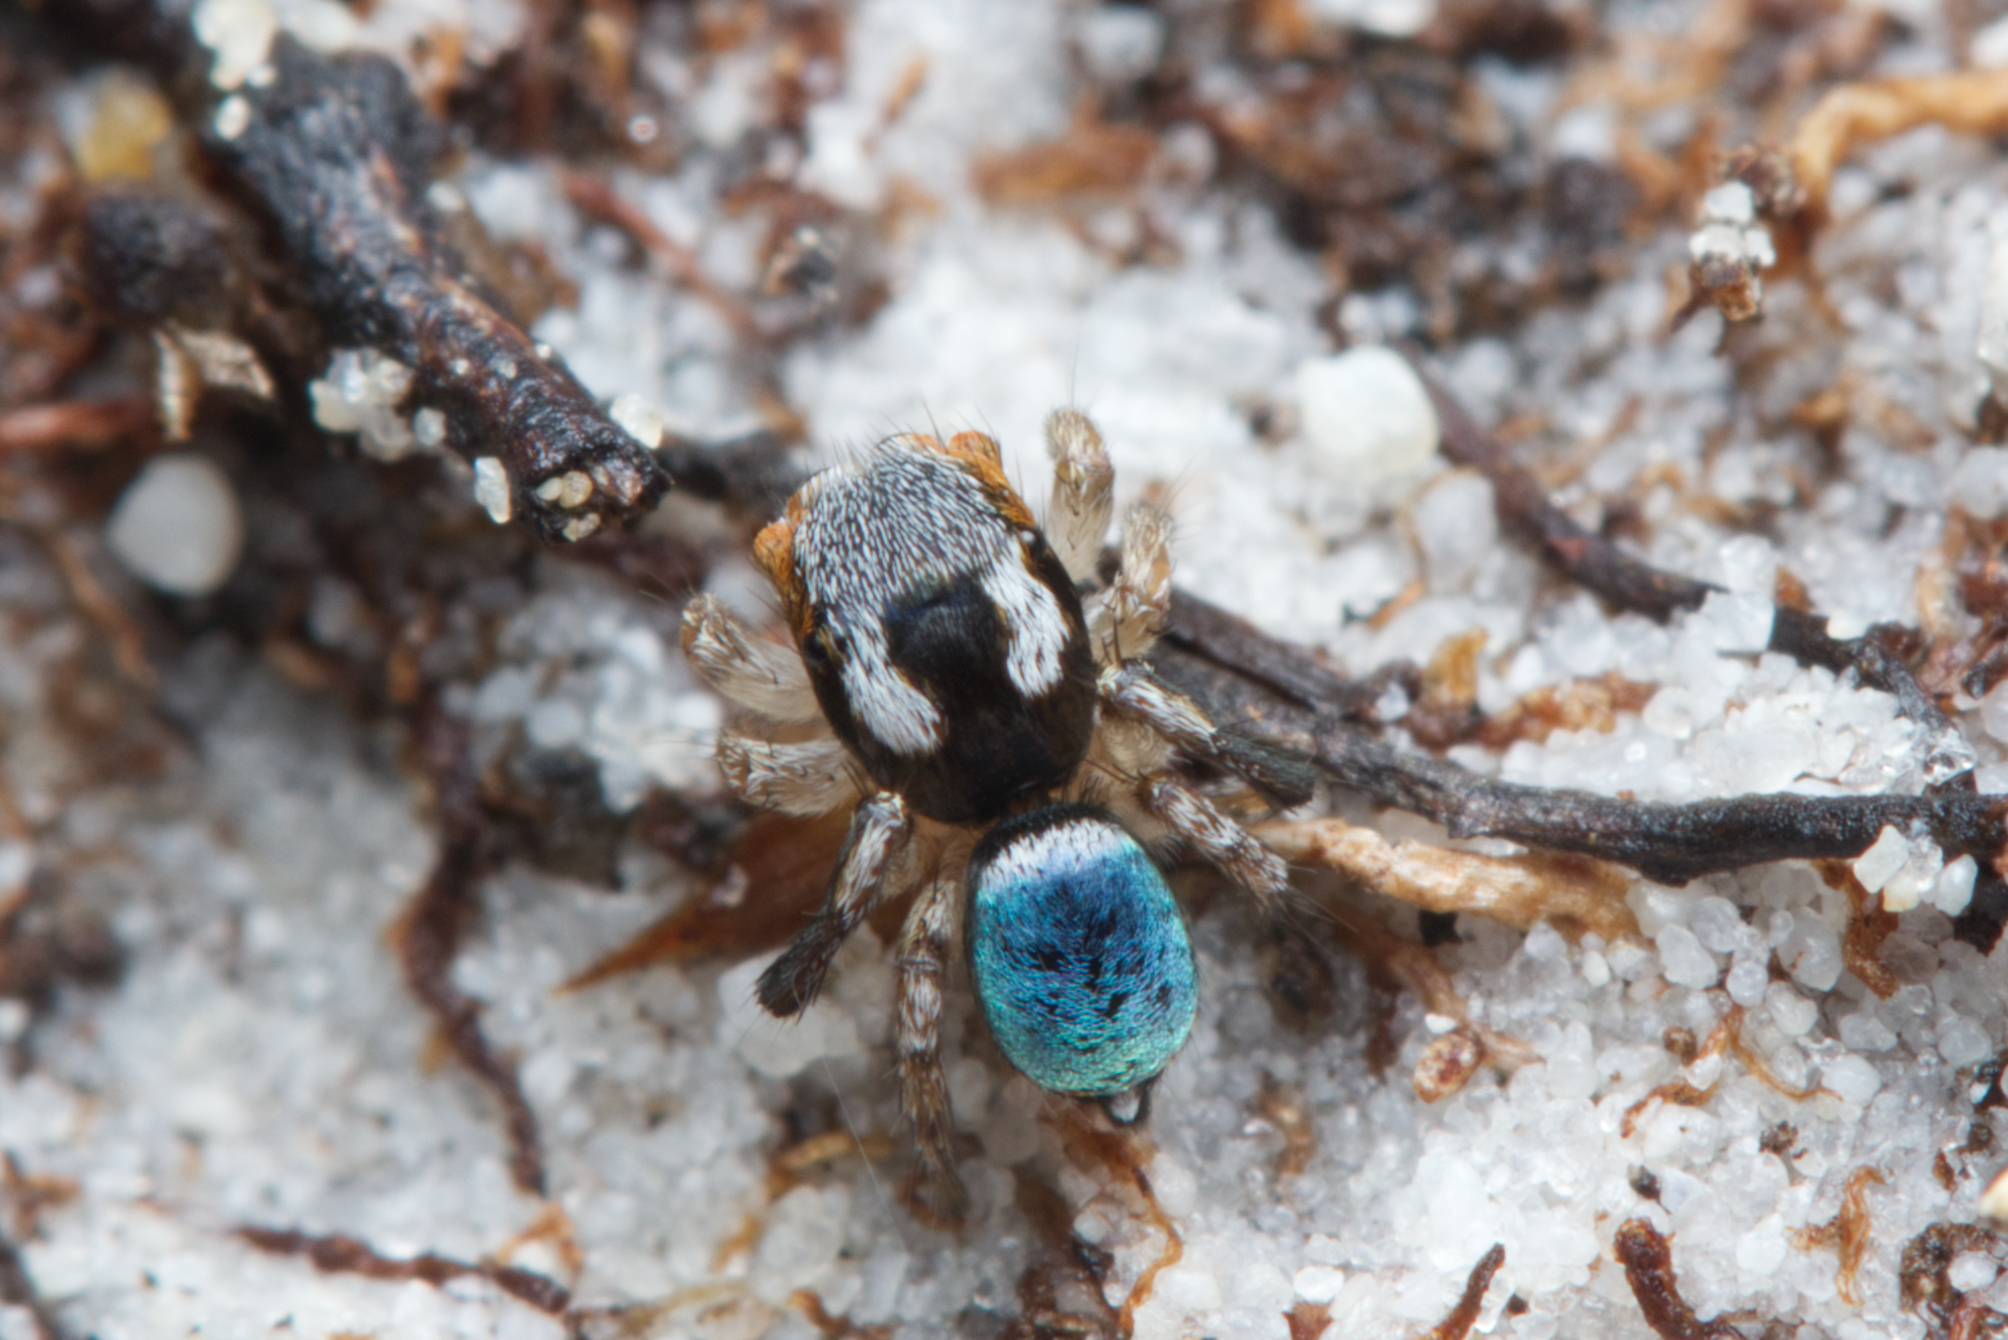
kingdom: Animalia
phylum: Arthropoda
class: Arachnida
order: Araneae
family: Salticidae
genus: Maratus
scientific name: Maratus anomalus
